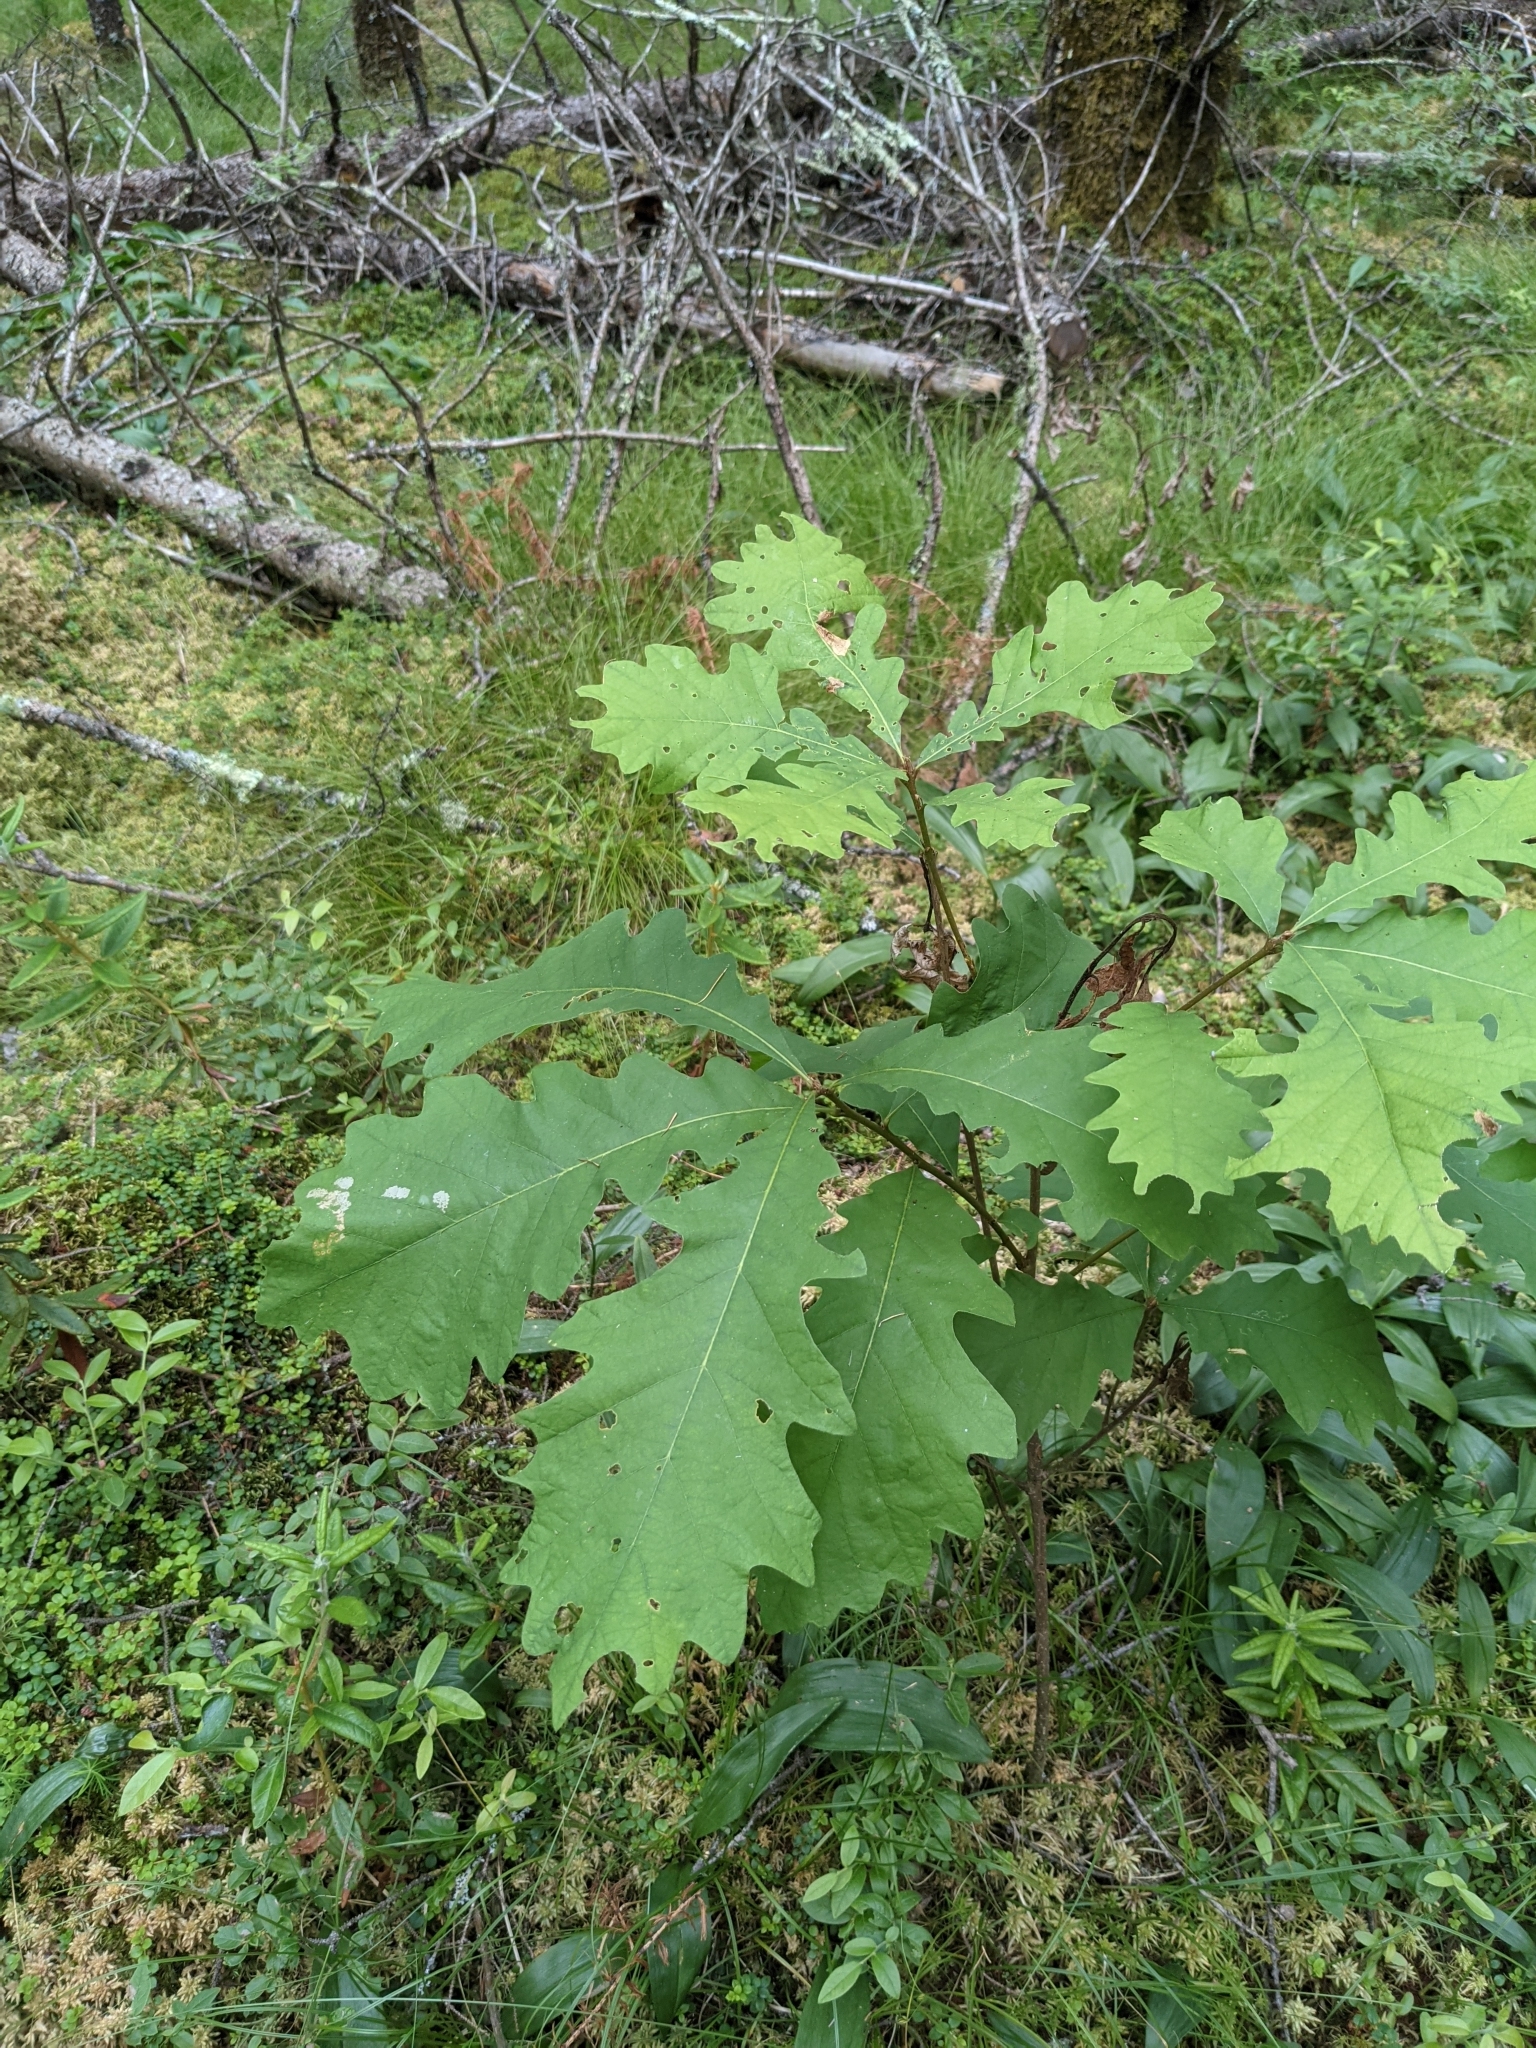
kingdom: Plantae
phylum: Tracheophyta
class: Magnoliopsida
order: Fagales
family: Fagaceae
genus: Quercus
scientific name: Quercus macrocarpa
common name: Bur oak
